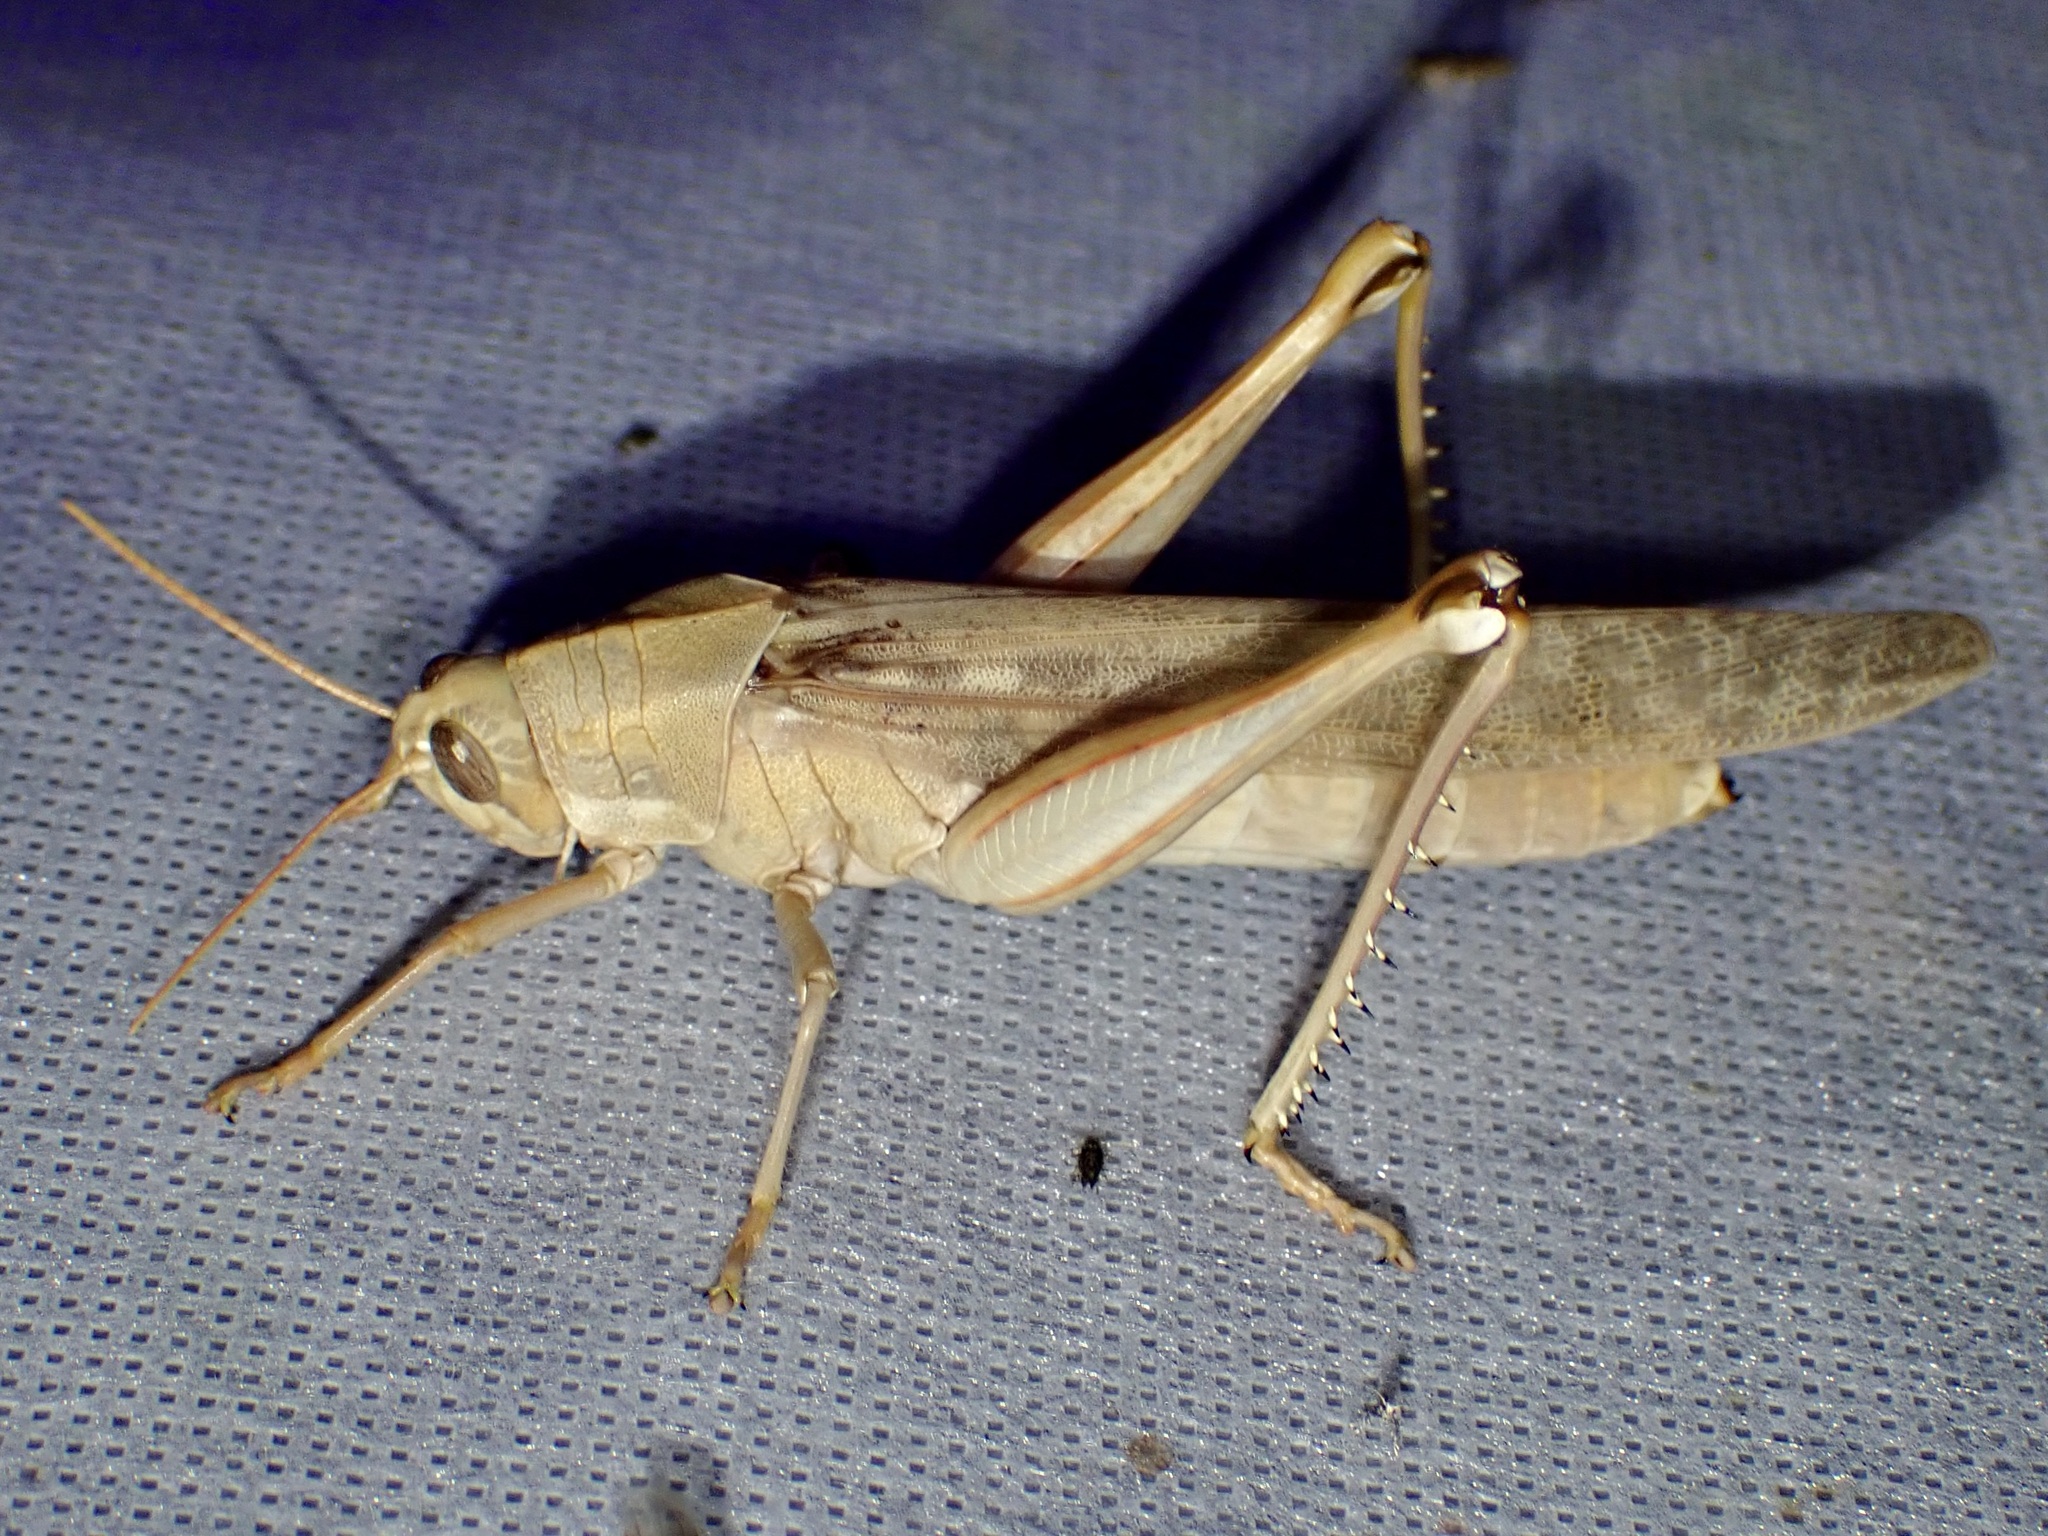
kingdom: Animalia
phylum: Arthropoda
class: Insecta
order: Orthoptera
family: Acrididae
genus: Schistocerca
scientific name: Schistocerca nitens
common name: Vagrant grasshopper
